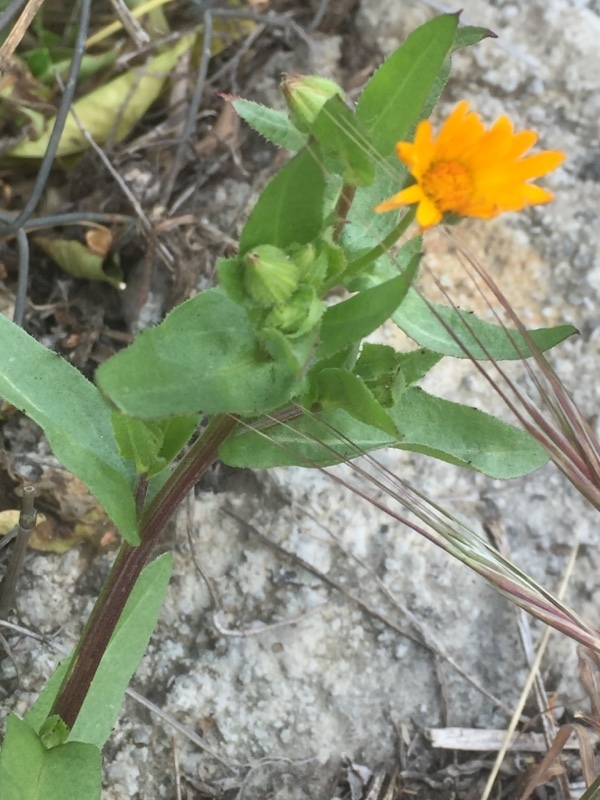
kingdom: Plantae
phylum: Tracheophyta
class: Magnoliopsida
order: Asterales
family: Asteraceae
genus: Calendula
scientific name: Calendula arvensis
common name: Field marigold
